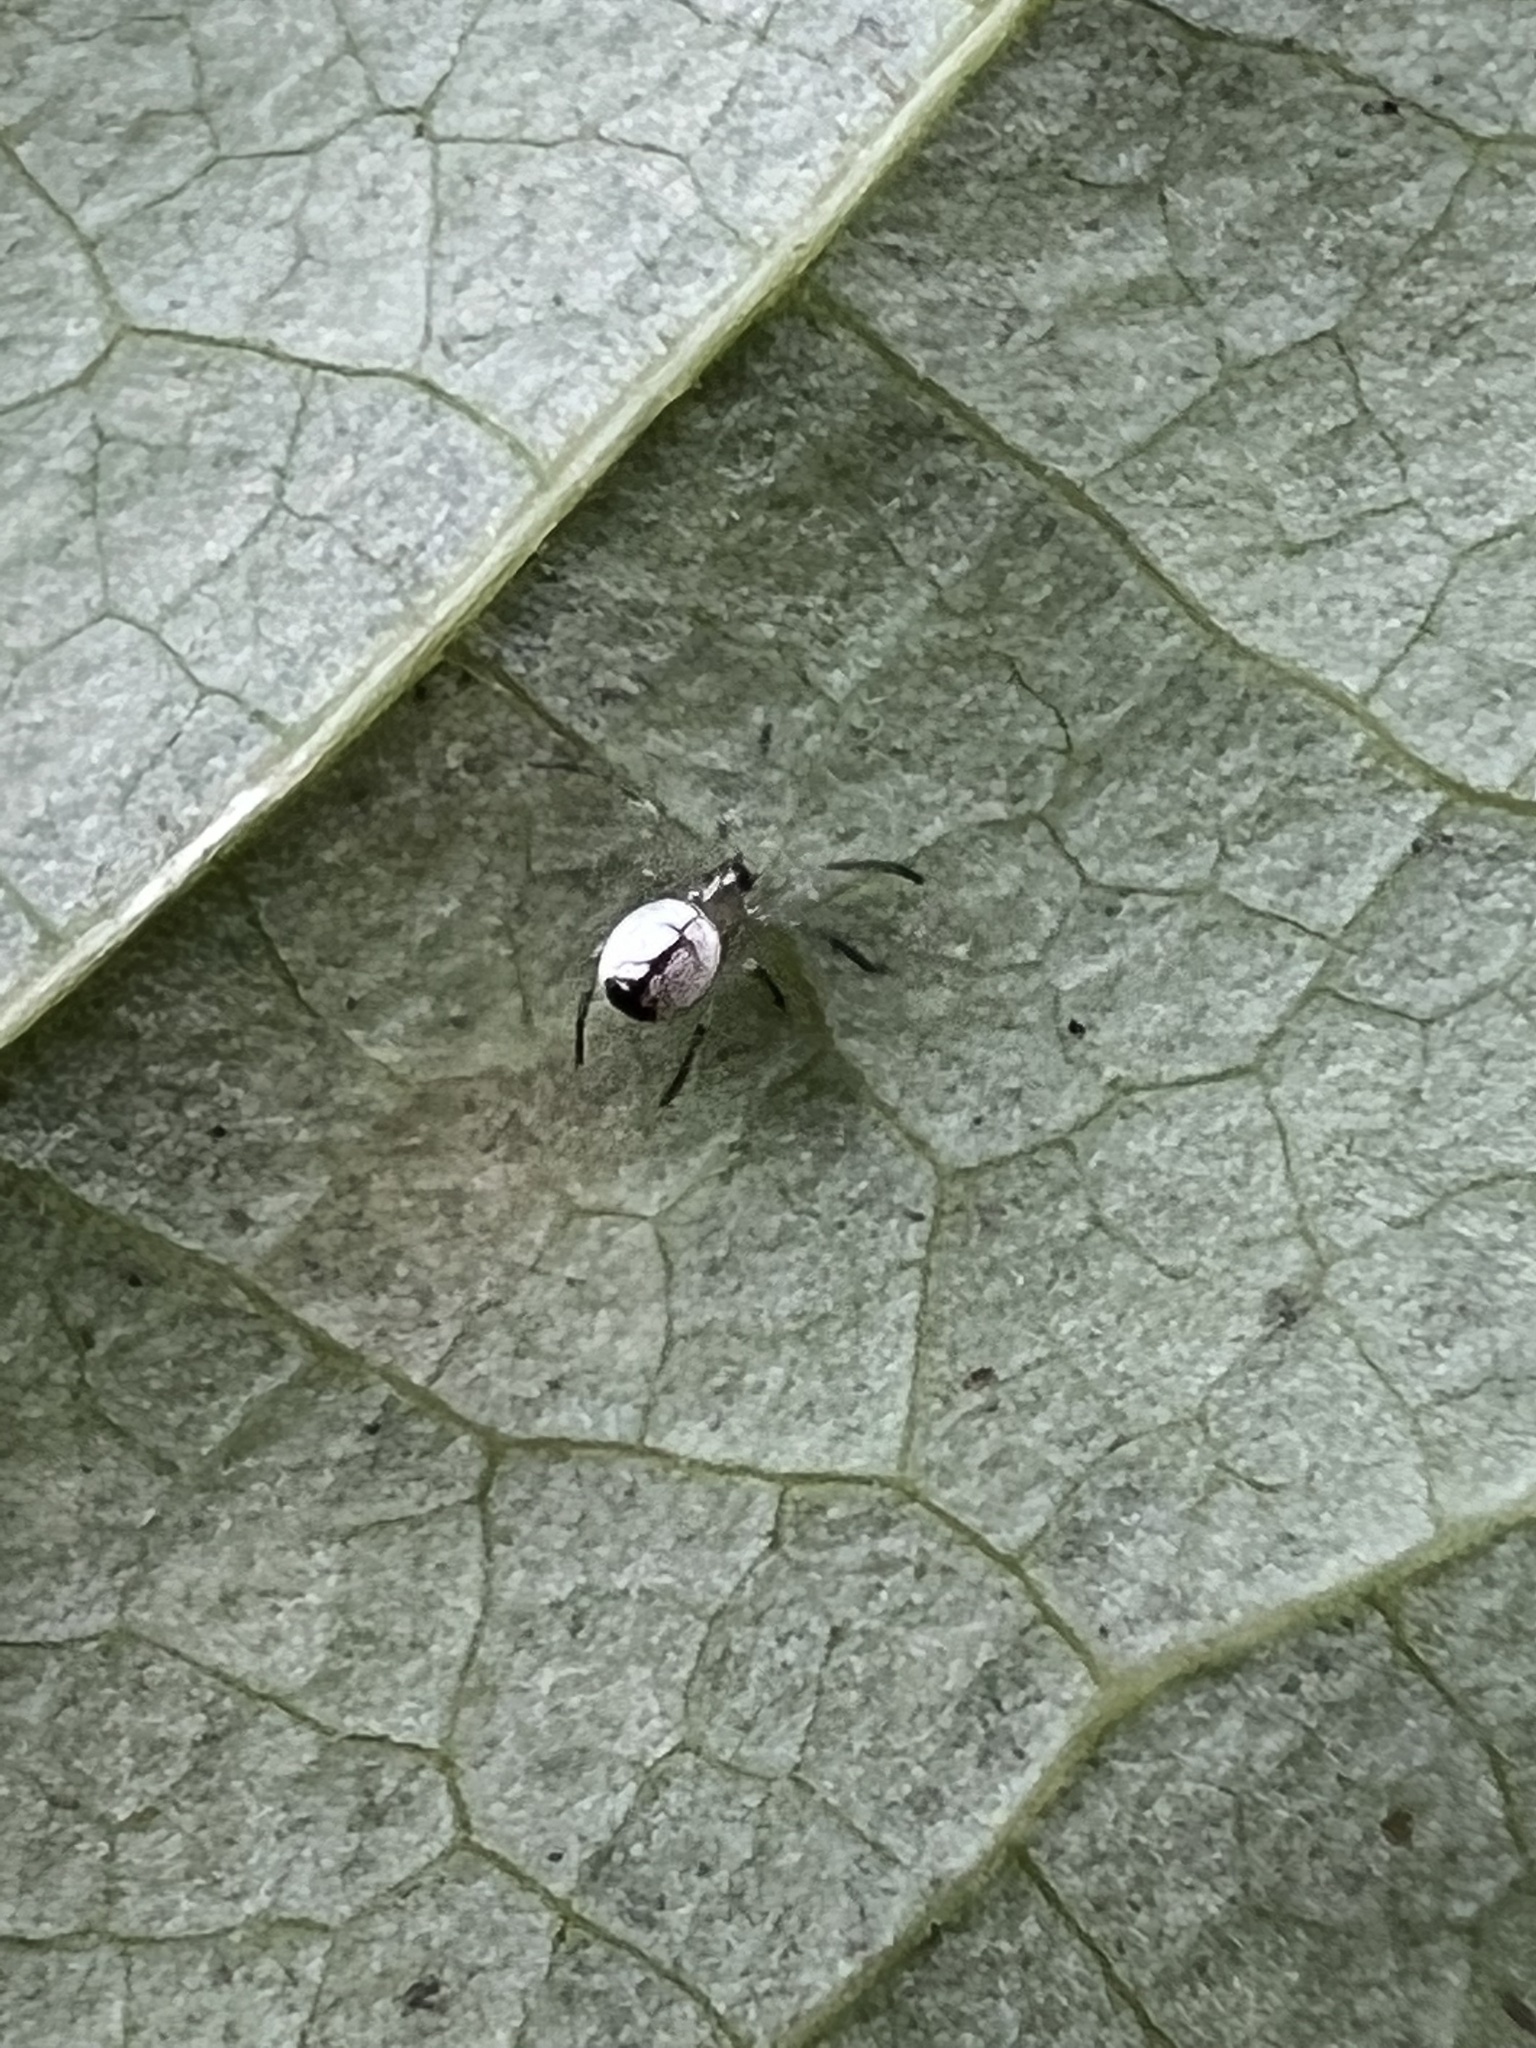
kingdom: Animalia
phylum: Arthropoda
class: Arachnida
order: Araneae
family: Tetragnathidae
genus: Leucauge
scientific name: Leucauge venusta
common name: Longjawed orb weavers
